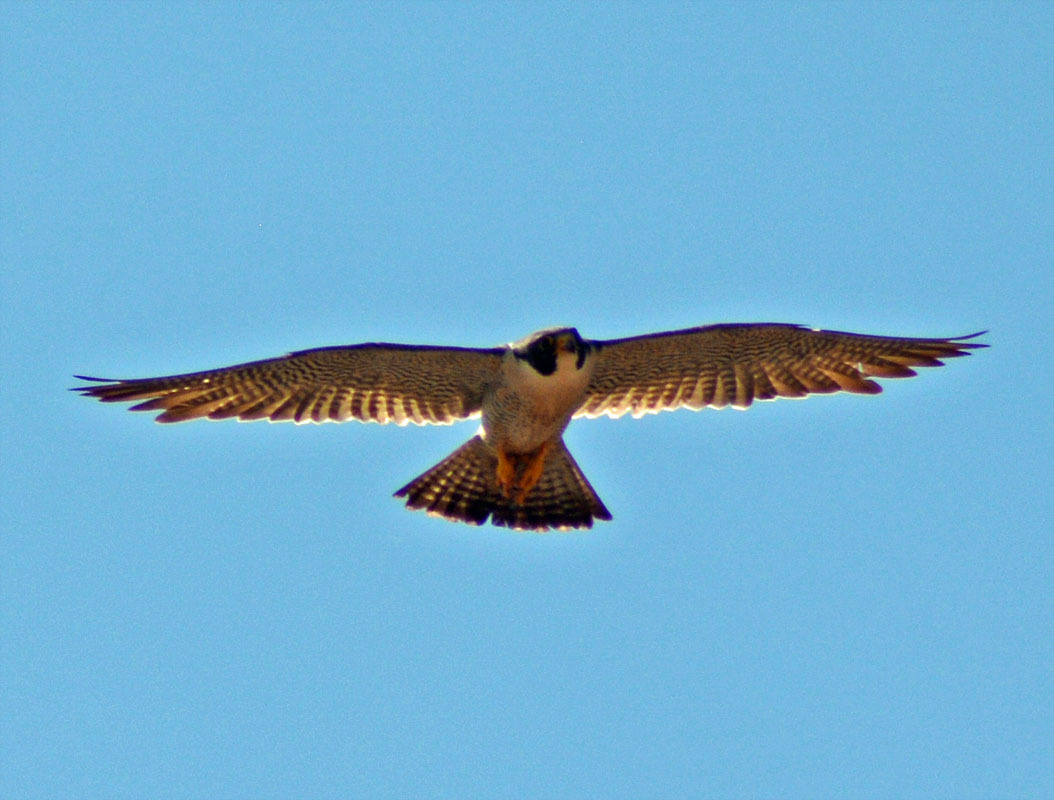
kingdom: Animalia
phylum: Chordata
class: Aves
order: Falconiformes
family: Falconidae
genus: Falco
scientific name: Falco peregrinus
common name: Peregrine falcon
